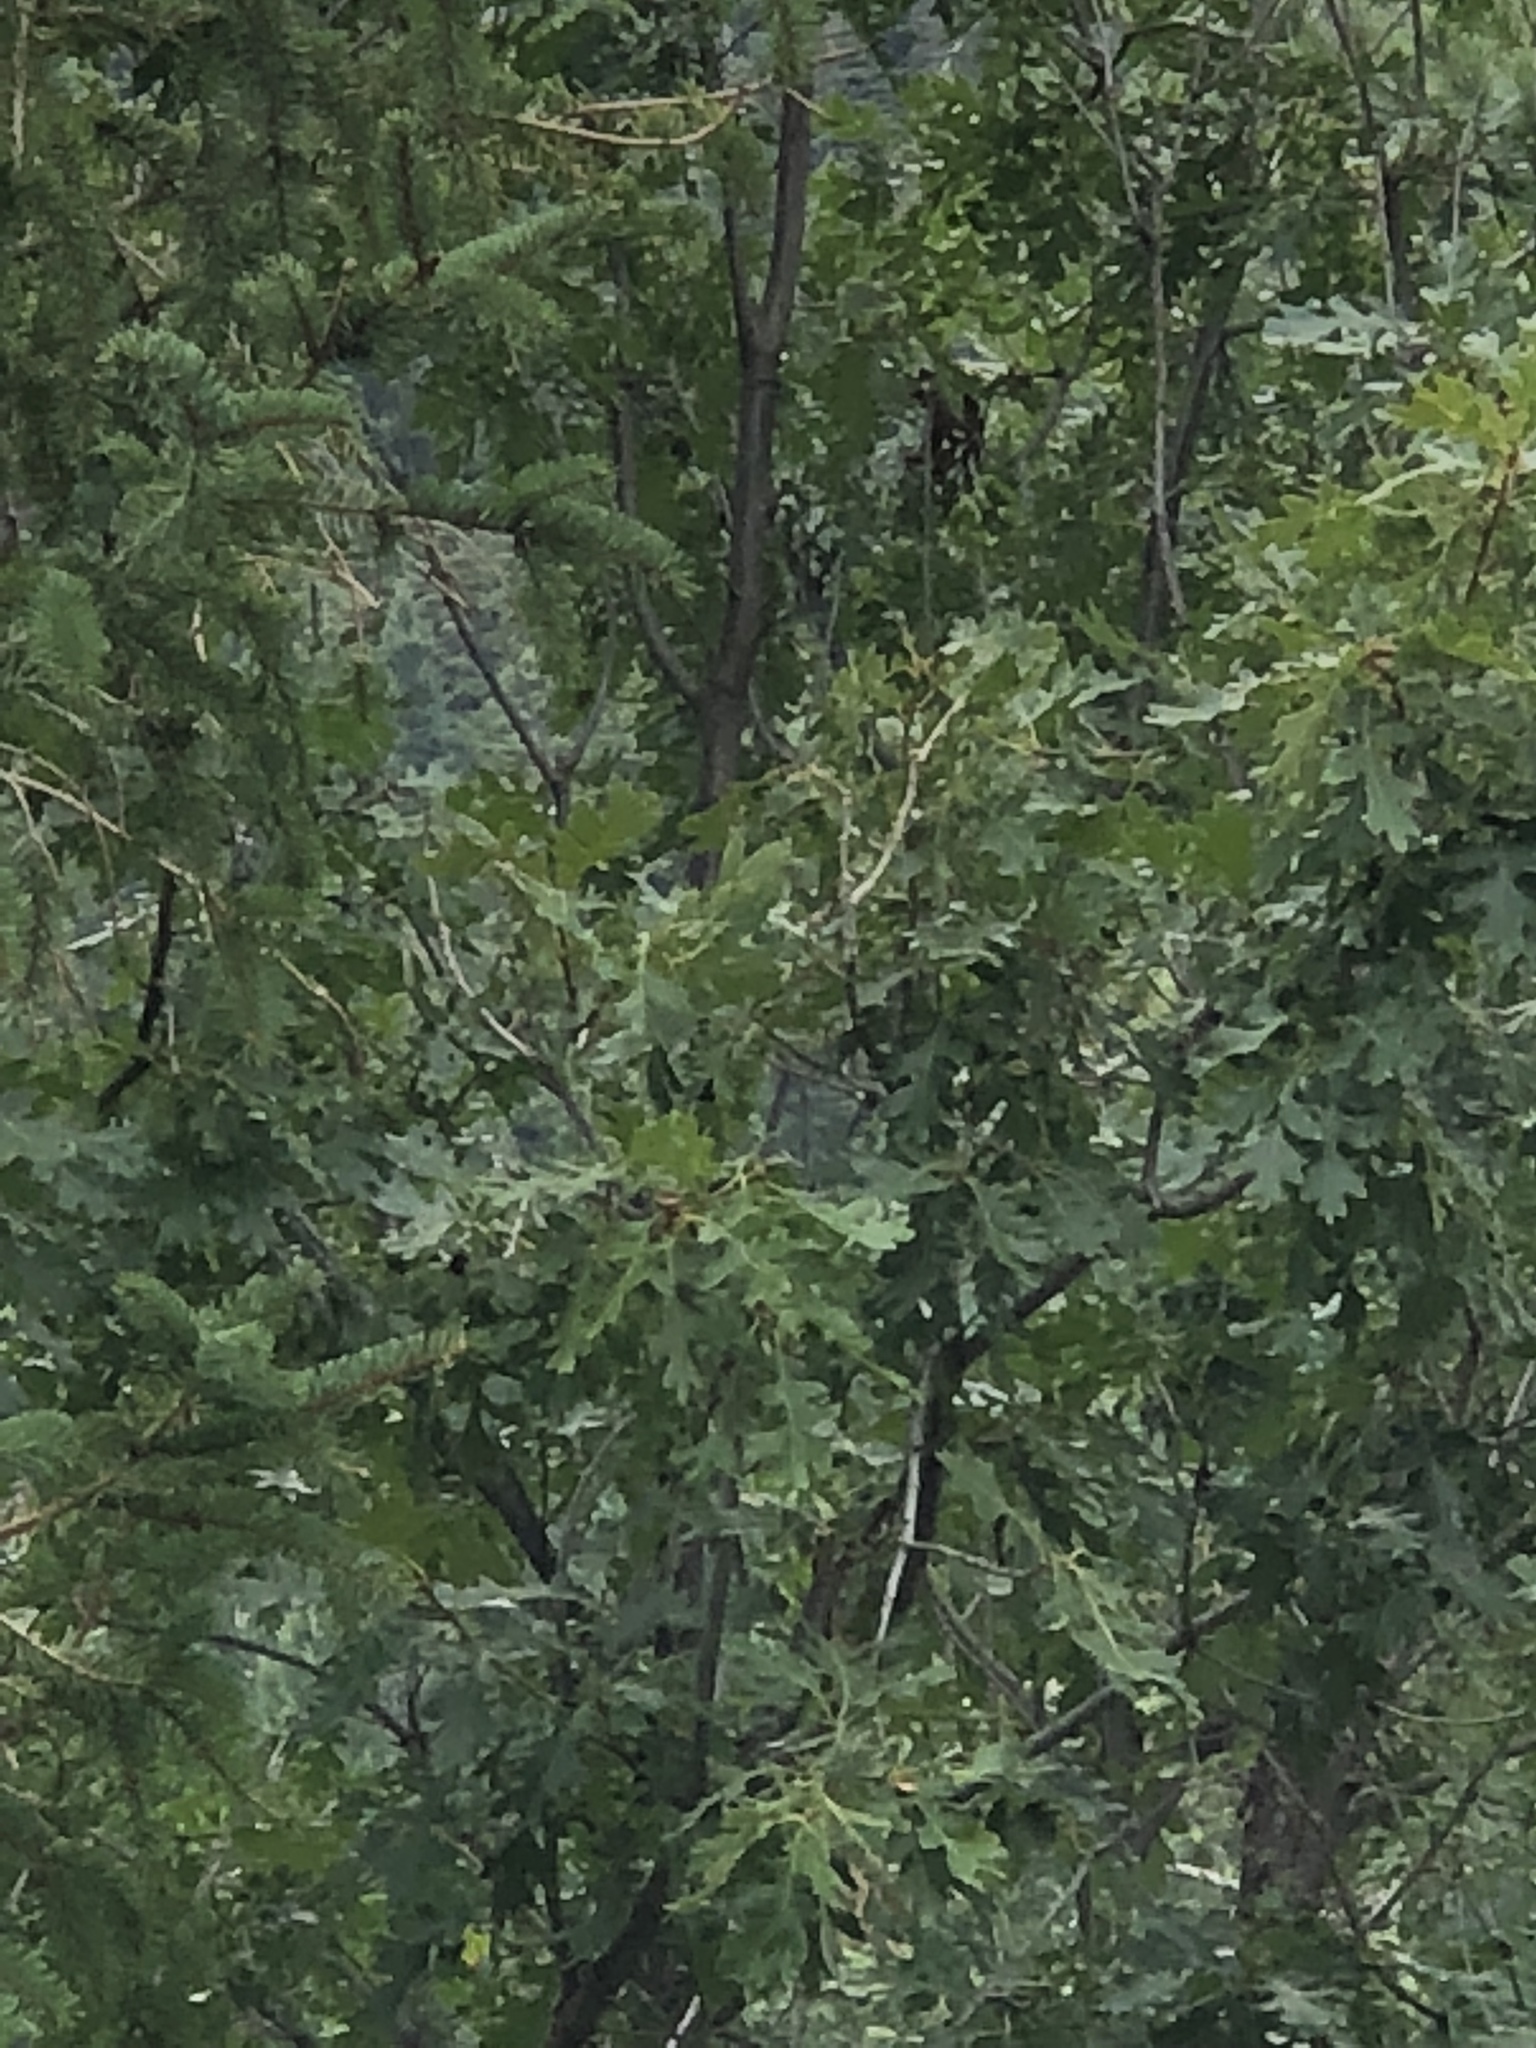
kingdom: Plantae
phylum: Tracheophyta
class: Magnoliopsida
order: Fagales
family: Fagaceae
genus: Quercus
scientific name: Quercus gambelii
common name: Gambel oak
